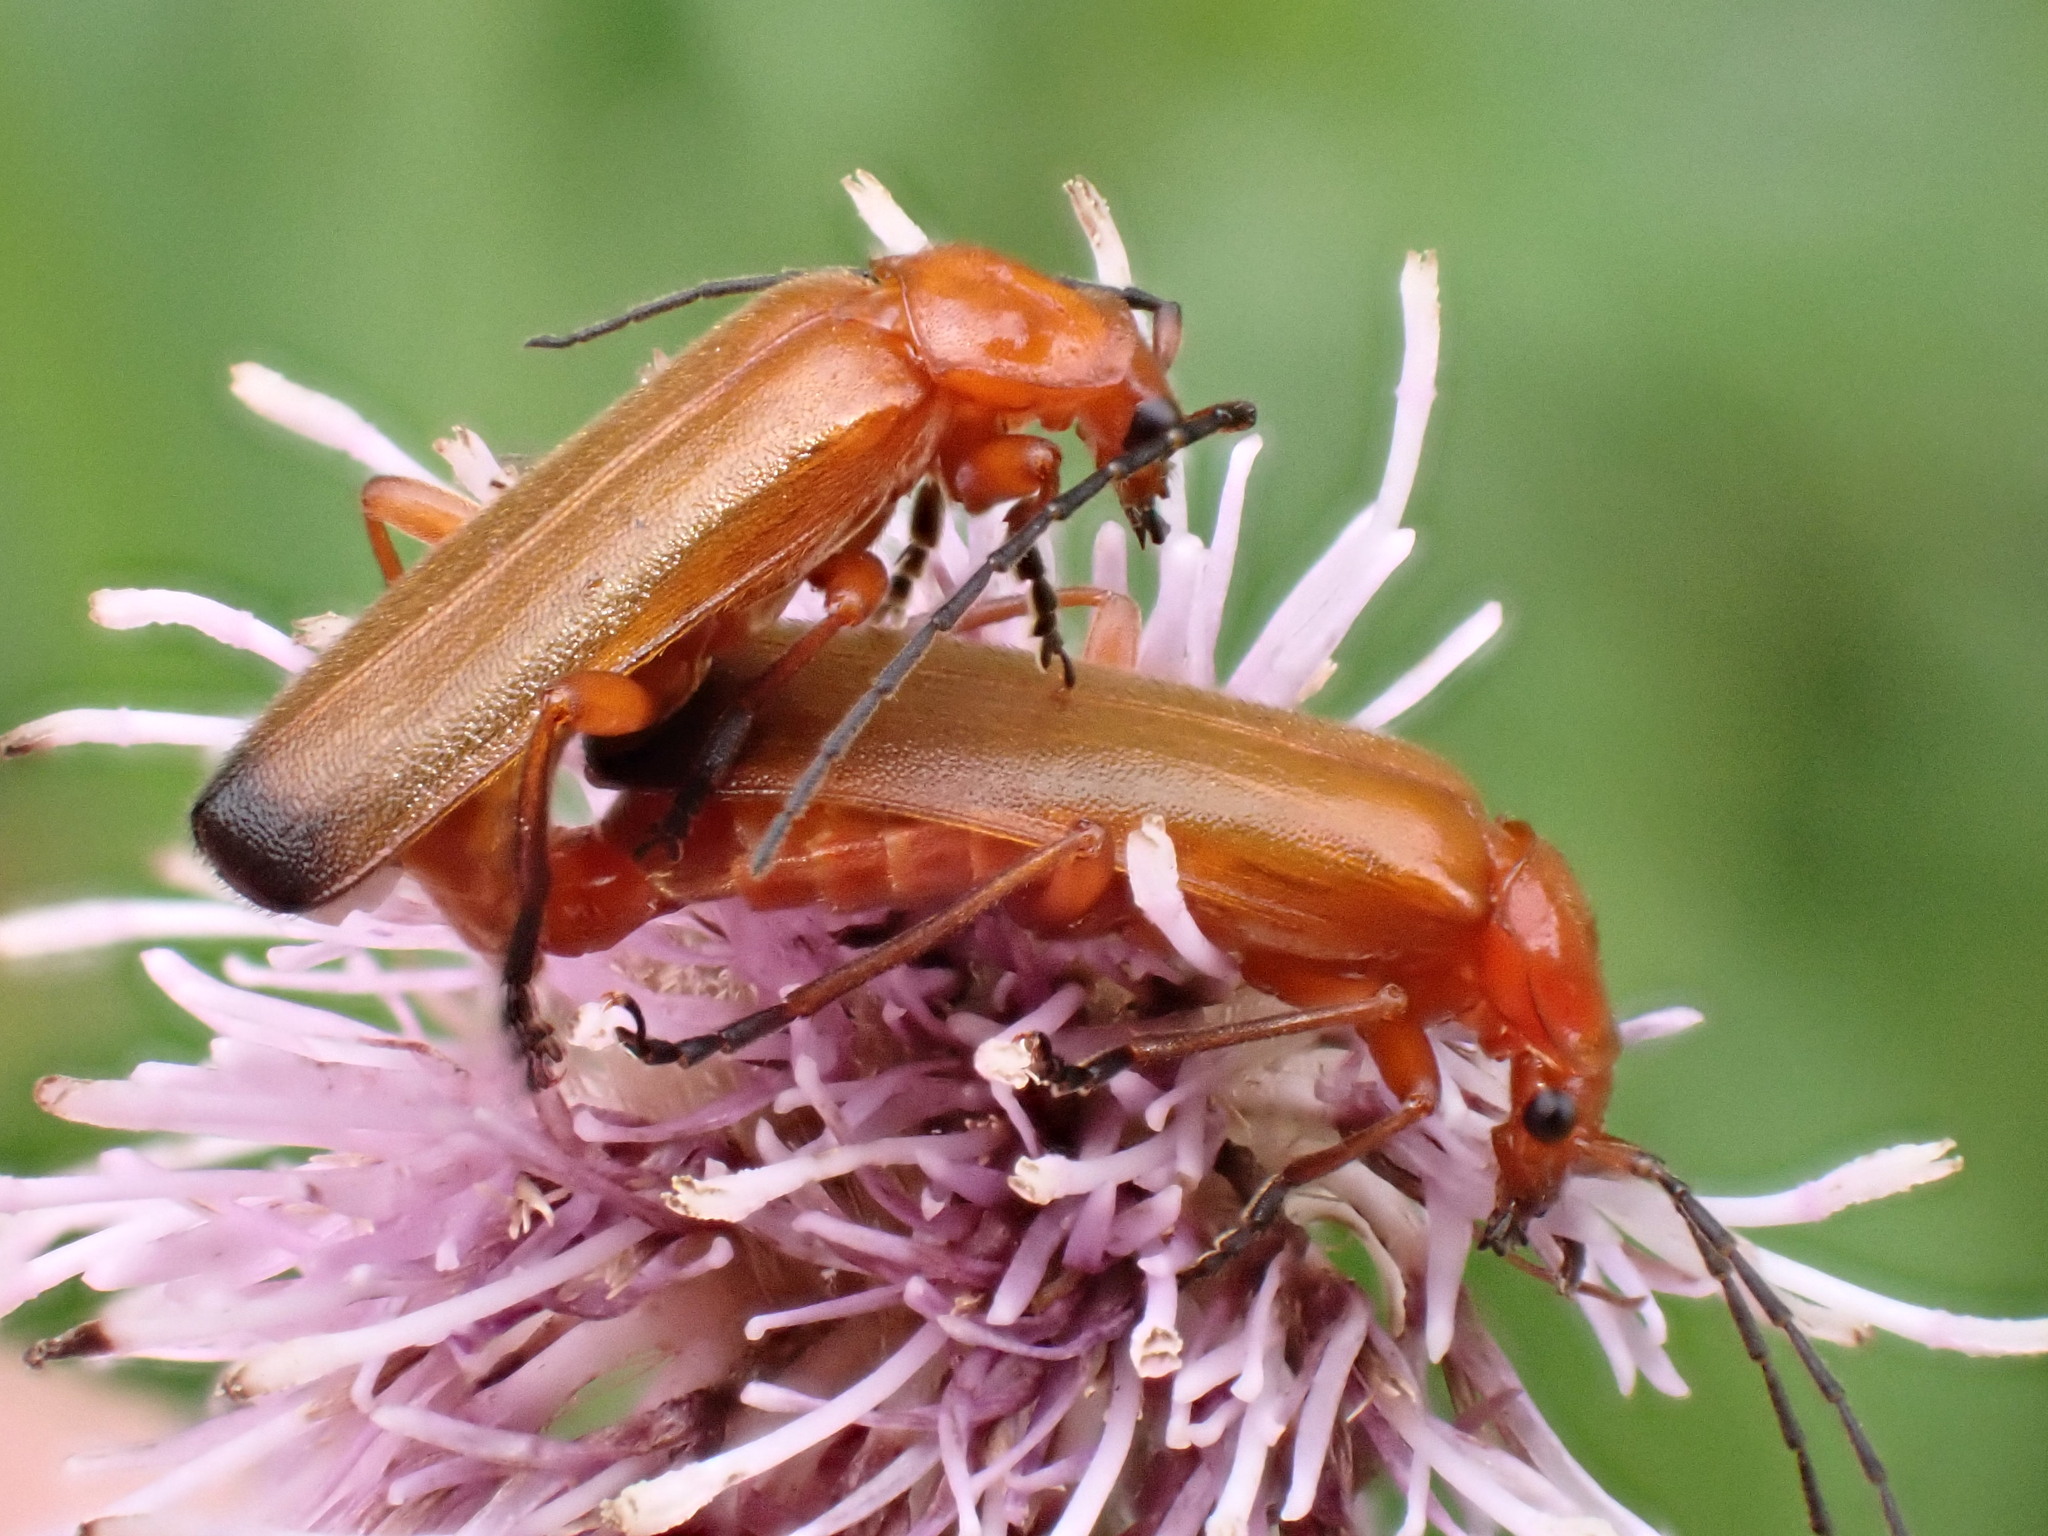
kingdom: Animalia
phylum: Arthropoda
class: Insecta
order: Coleoptera
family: Cantharidae
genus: Rhagonycha
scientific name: Rhagonycha fulva
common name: Common red soldier beetle
